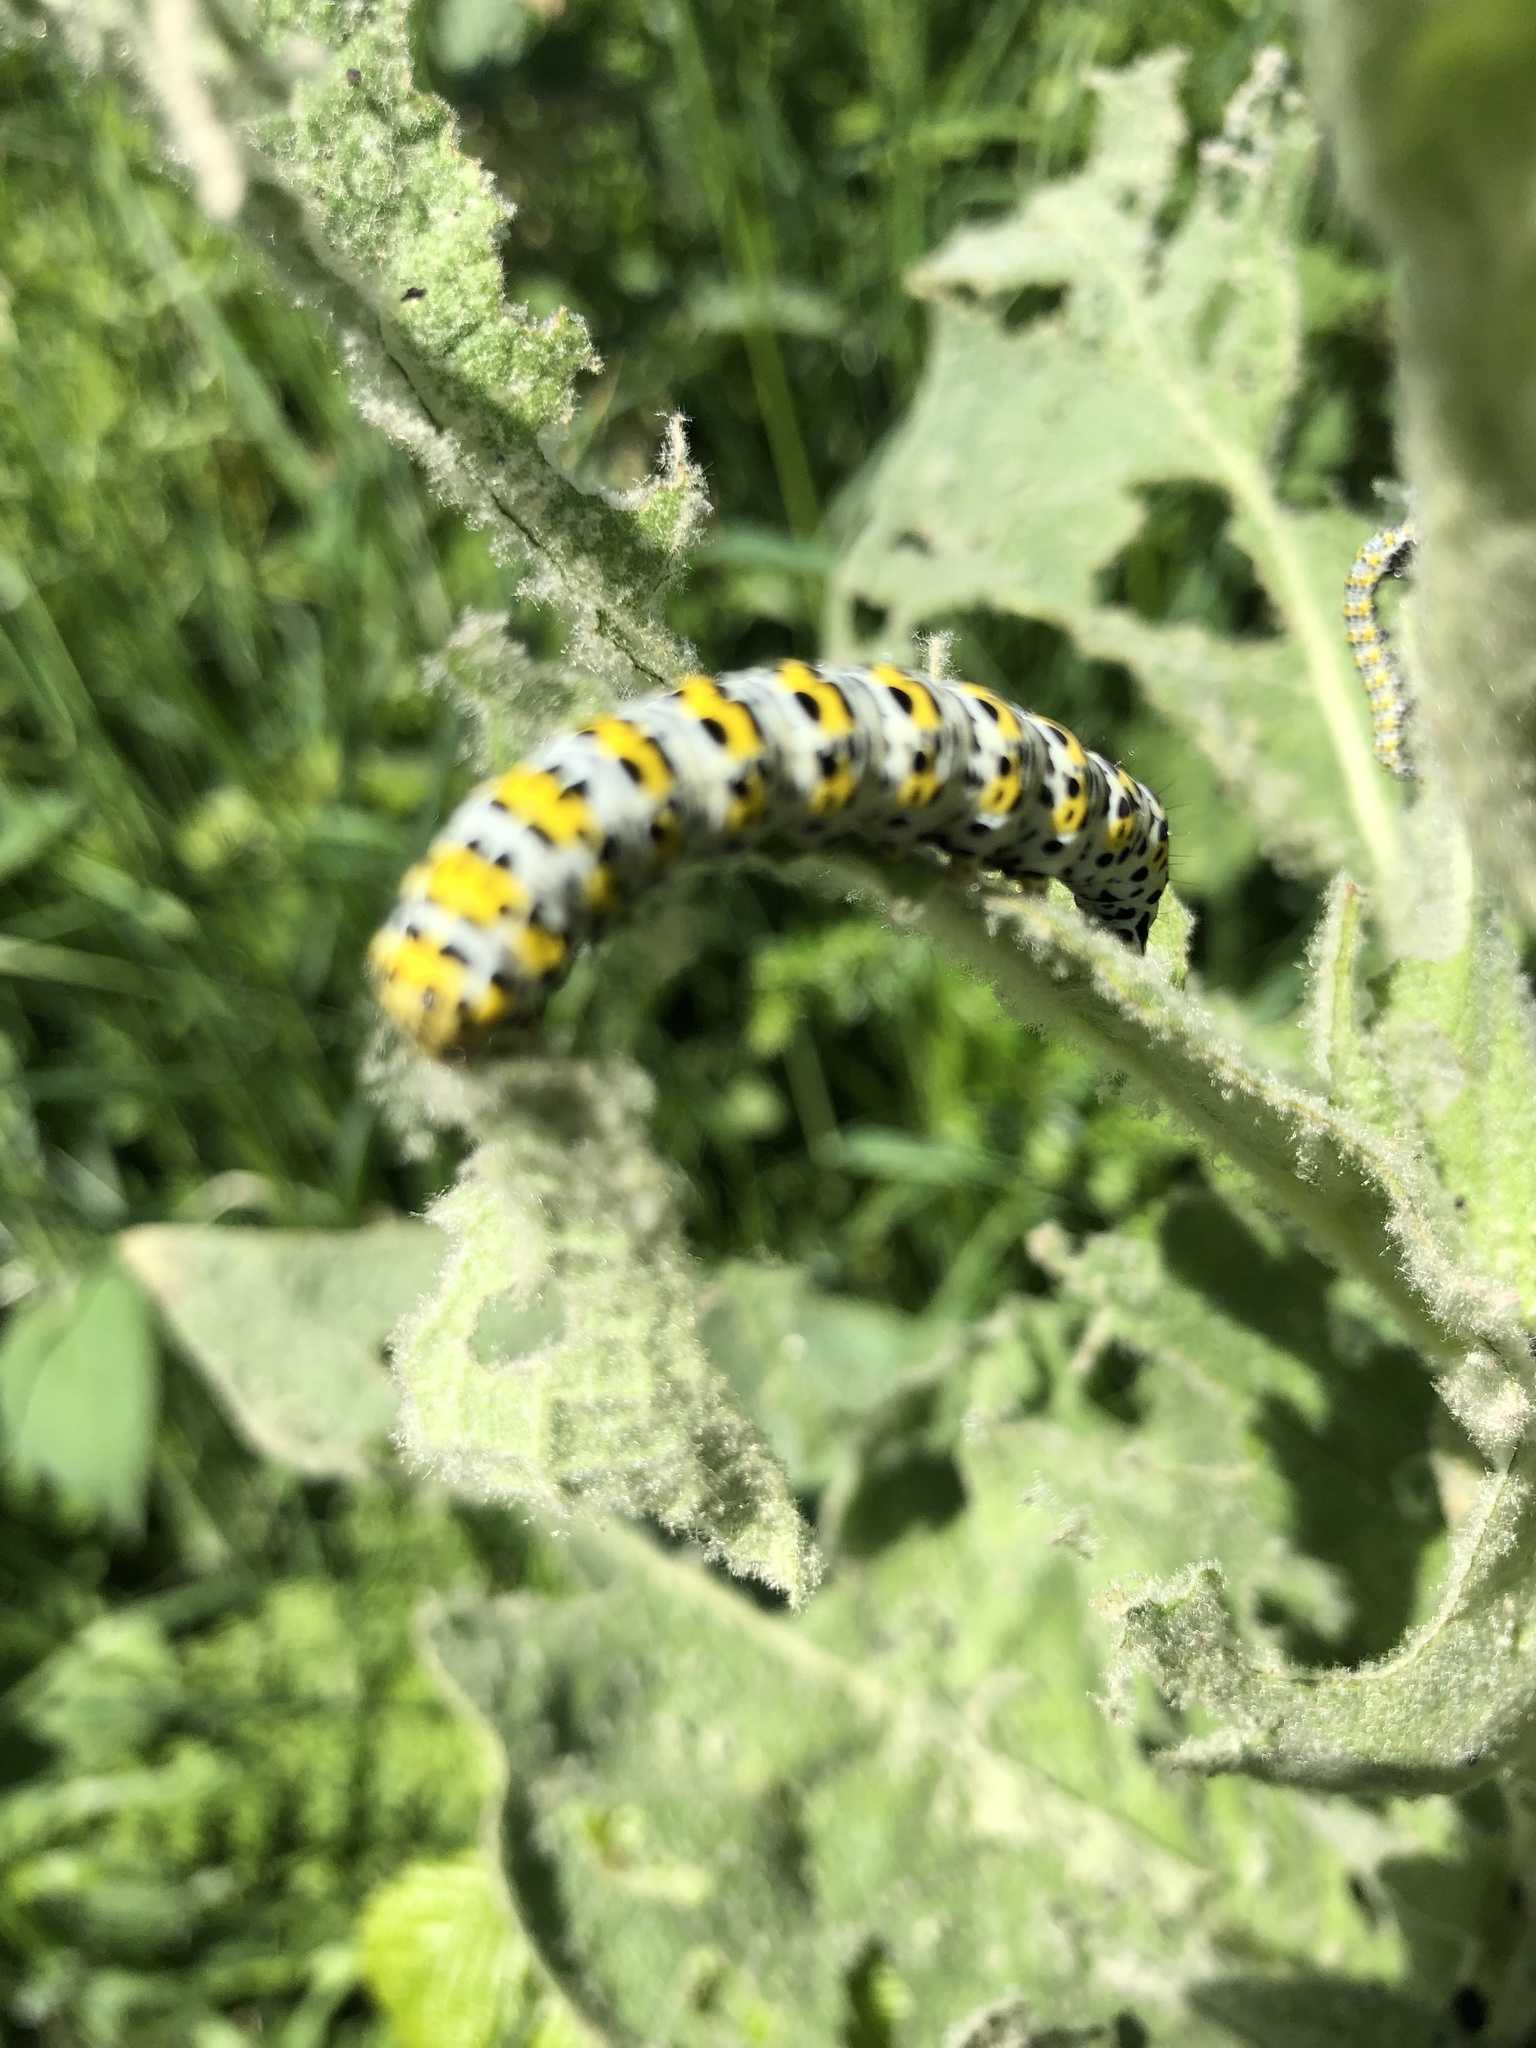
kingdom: Animalia
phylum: Arthropoda
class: Insecta
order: Lepidoptera
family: Noctuidae
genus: Cucullia
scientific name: Cucullia verbasci
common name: Mullein
